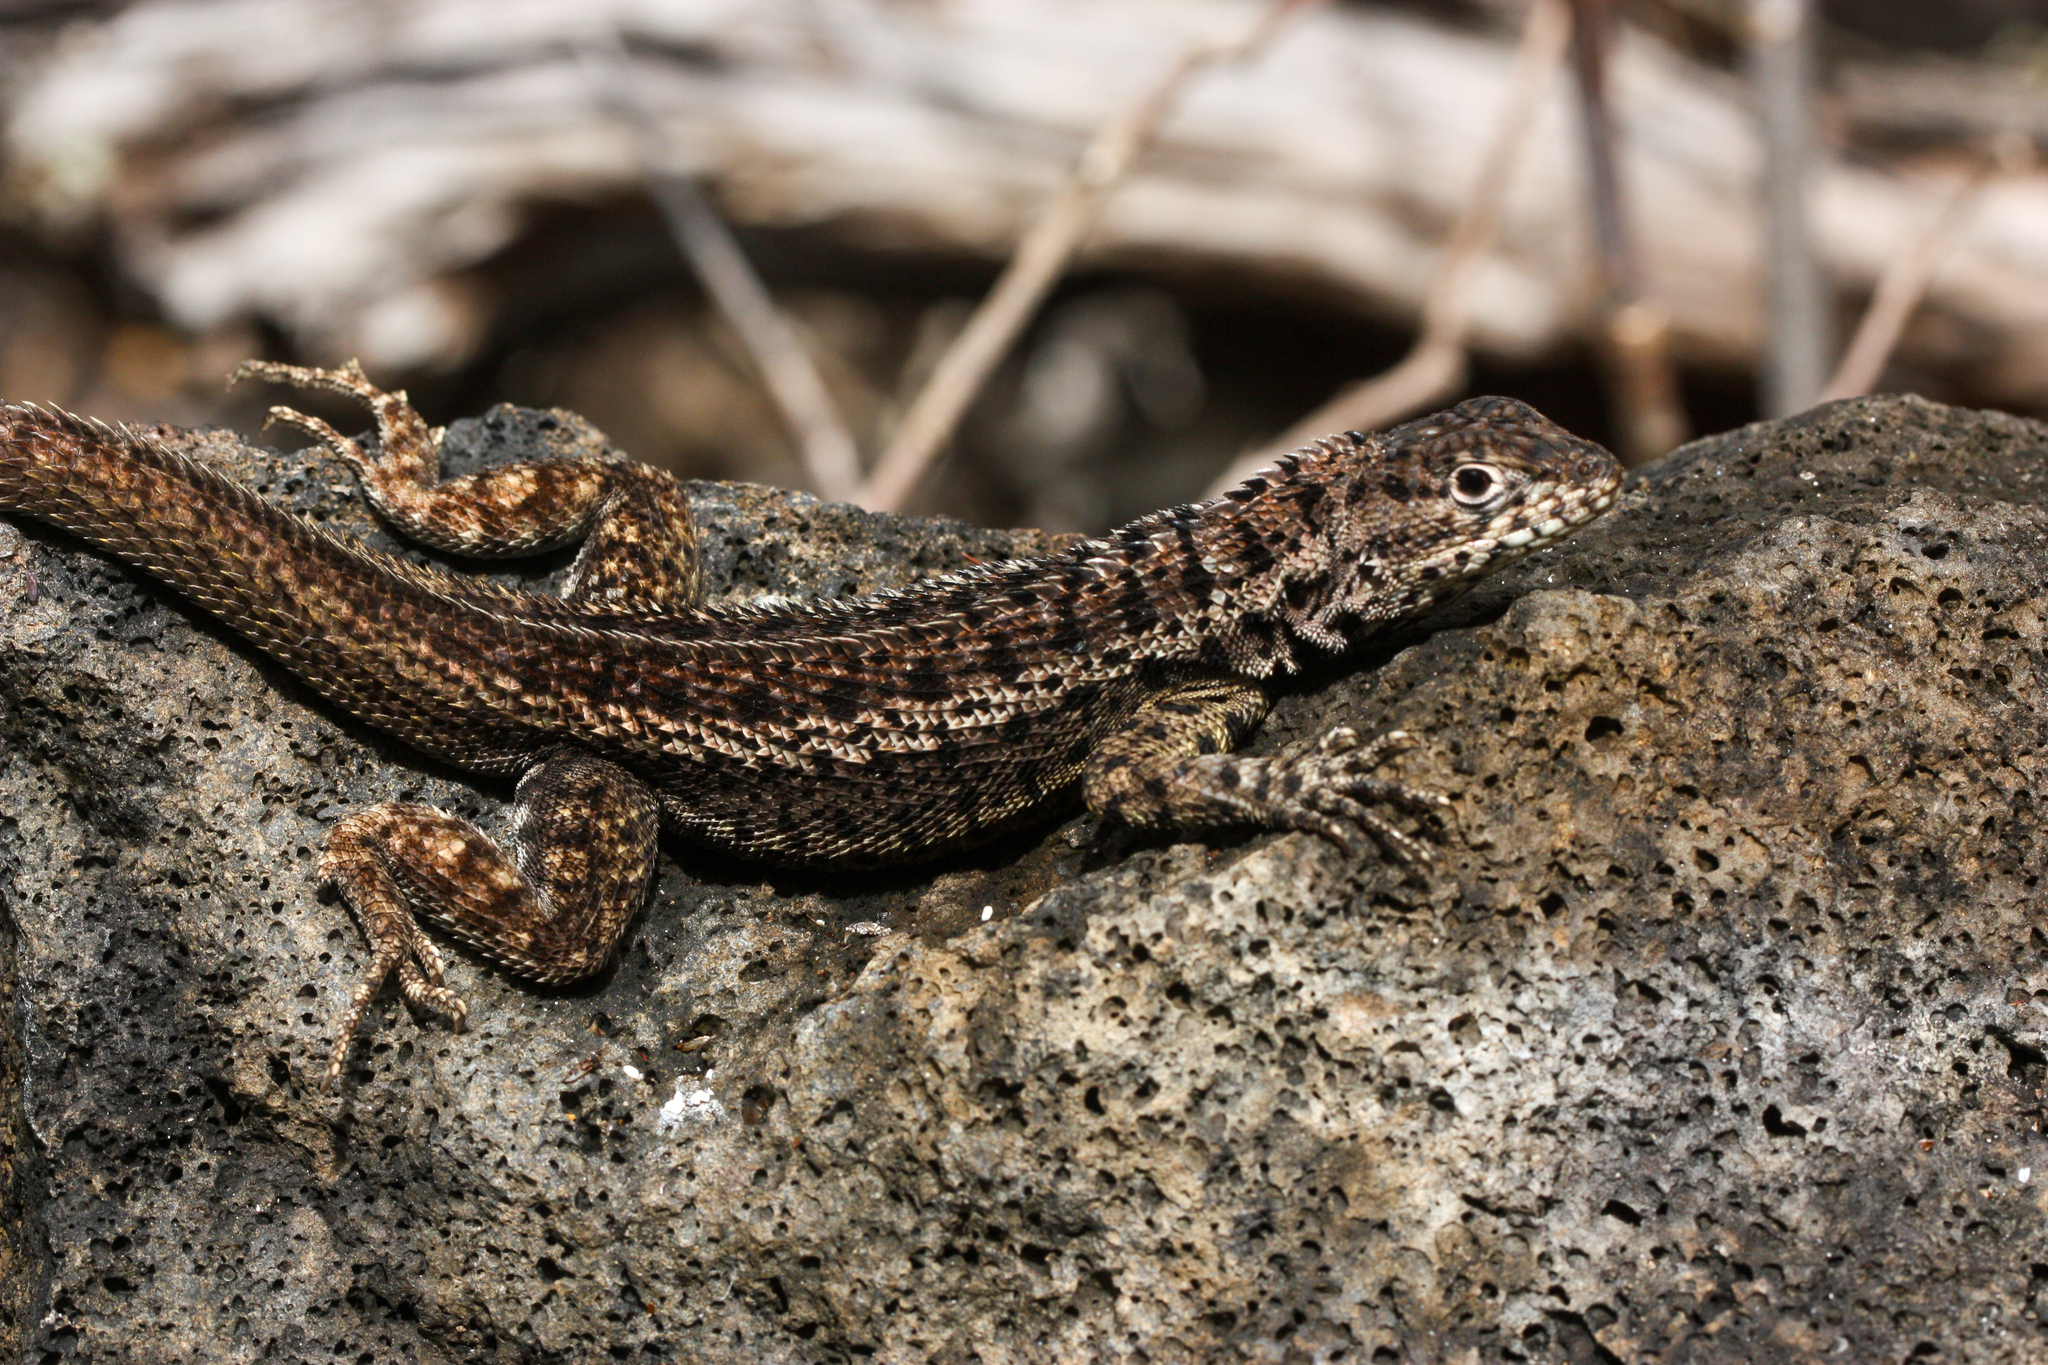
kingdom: Animalia
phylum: Chordata
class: Squamata
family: Tropiduridae
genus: Microlophus
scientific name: Microlophus albemarlensis
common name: Galapagos lava lizard
